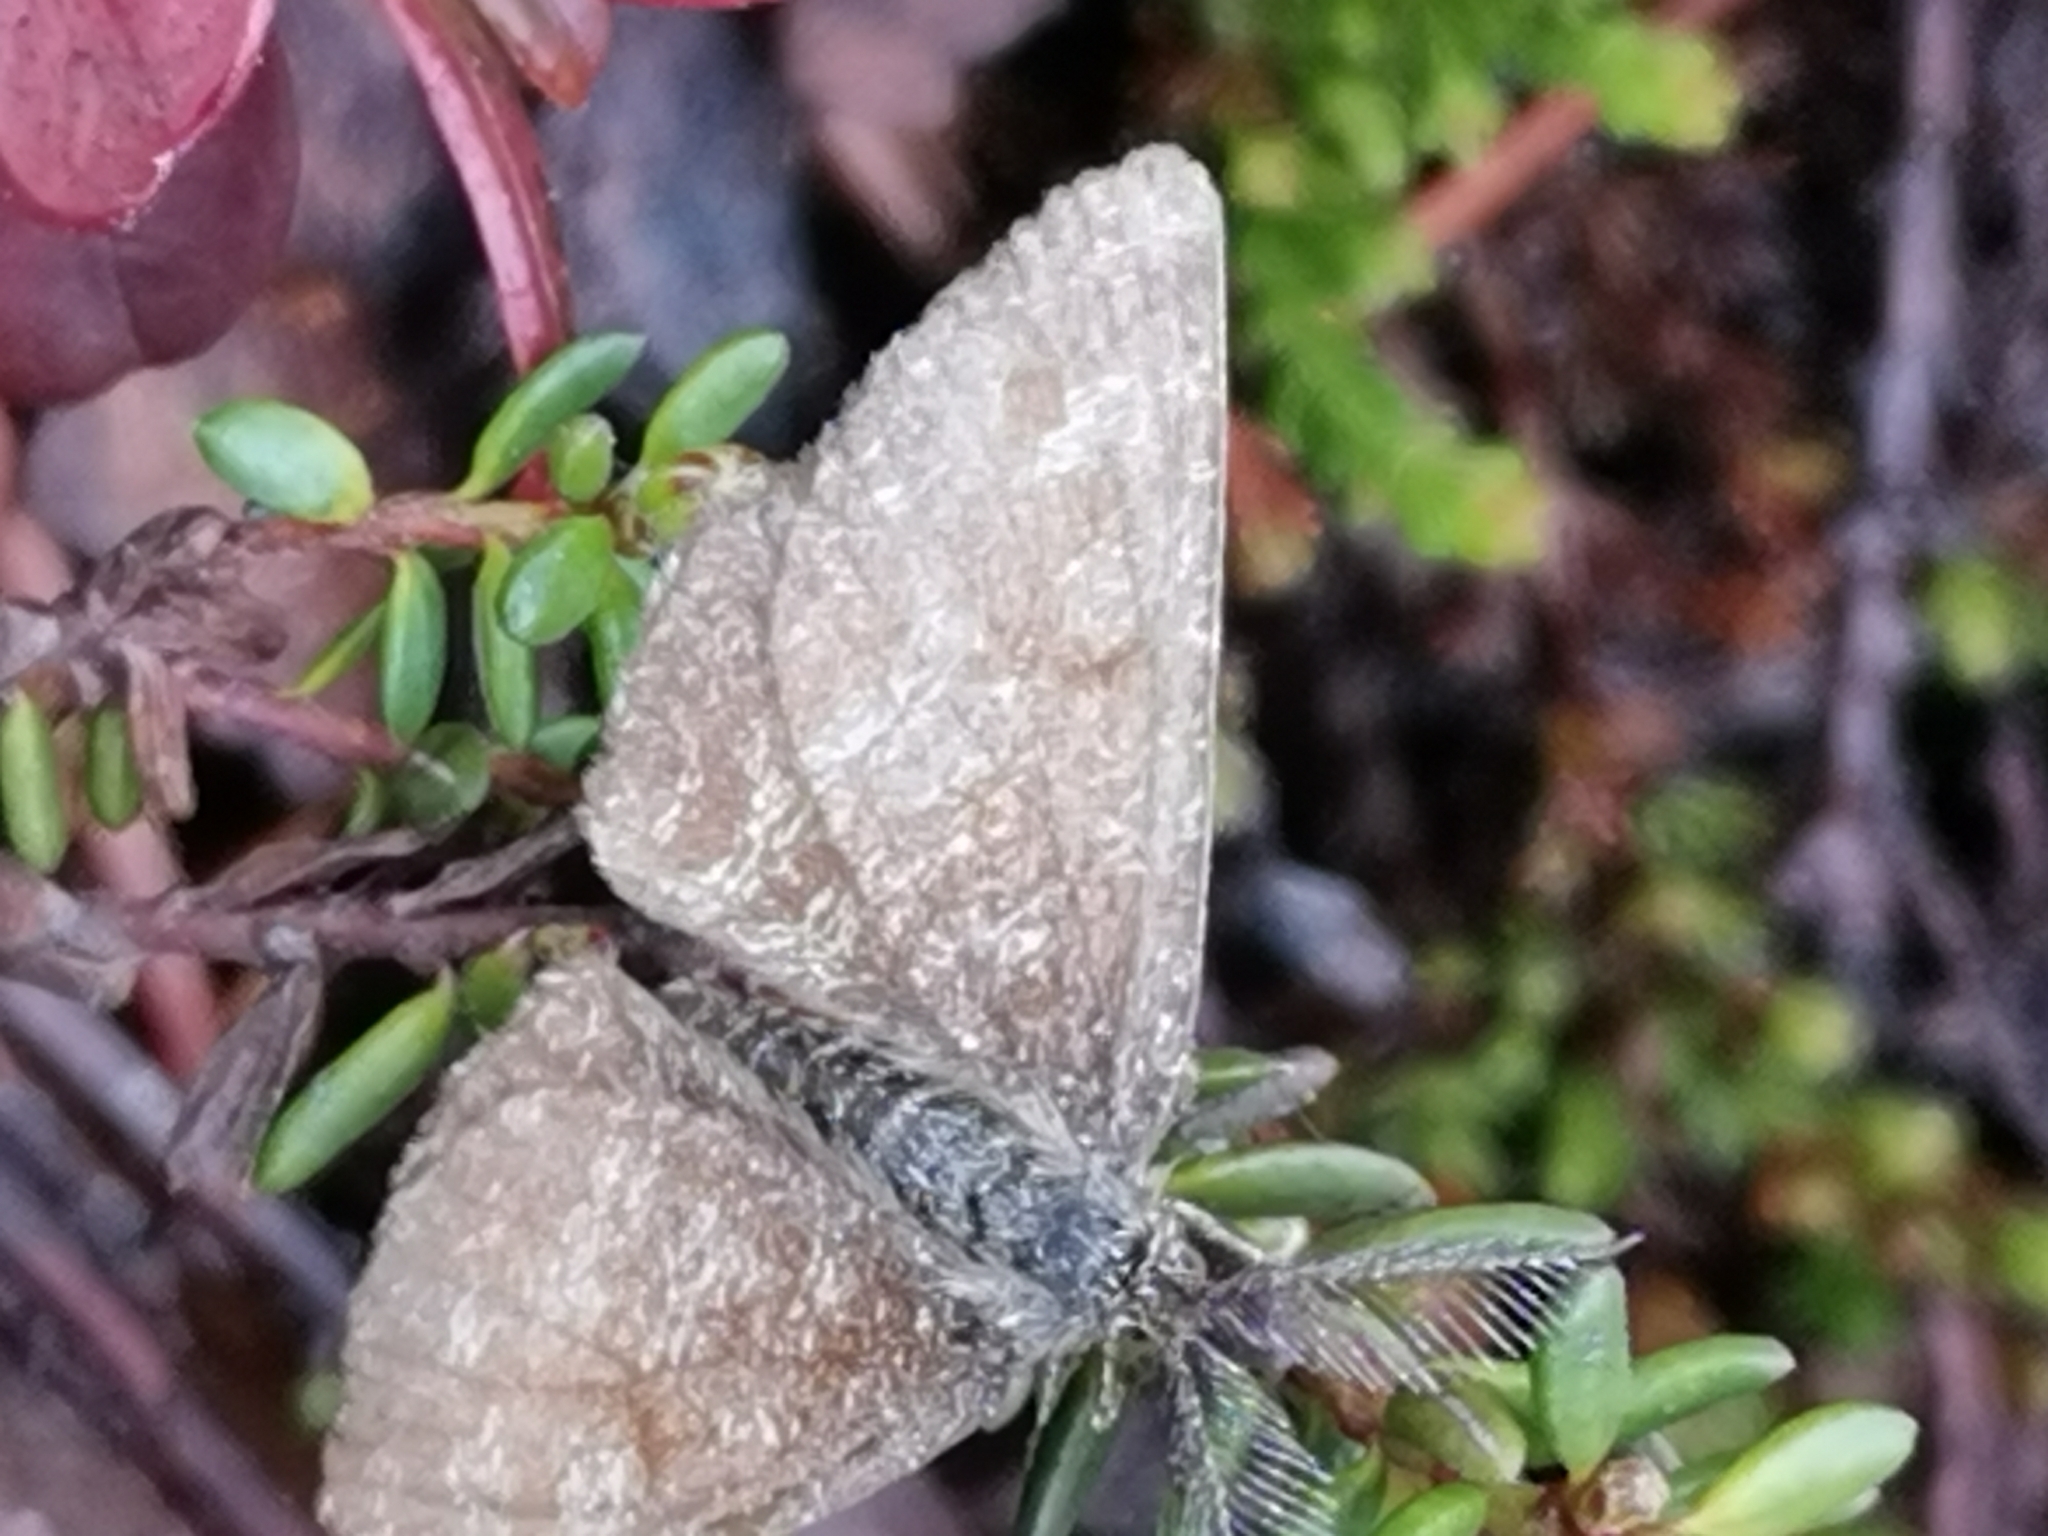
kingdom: Animalia
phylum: Arthropoda
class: Insecta
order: Lepidoptera
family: Geometridae
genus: Ematurga
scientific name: Ematurga atomaria
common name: Common heath
